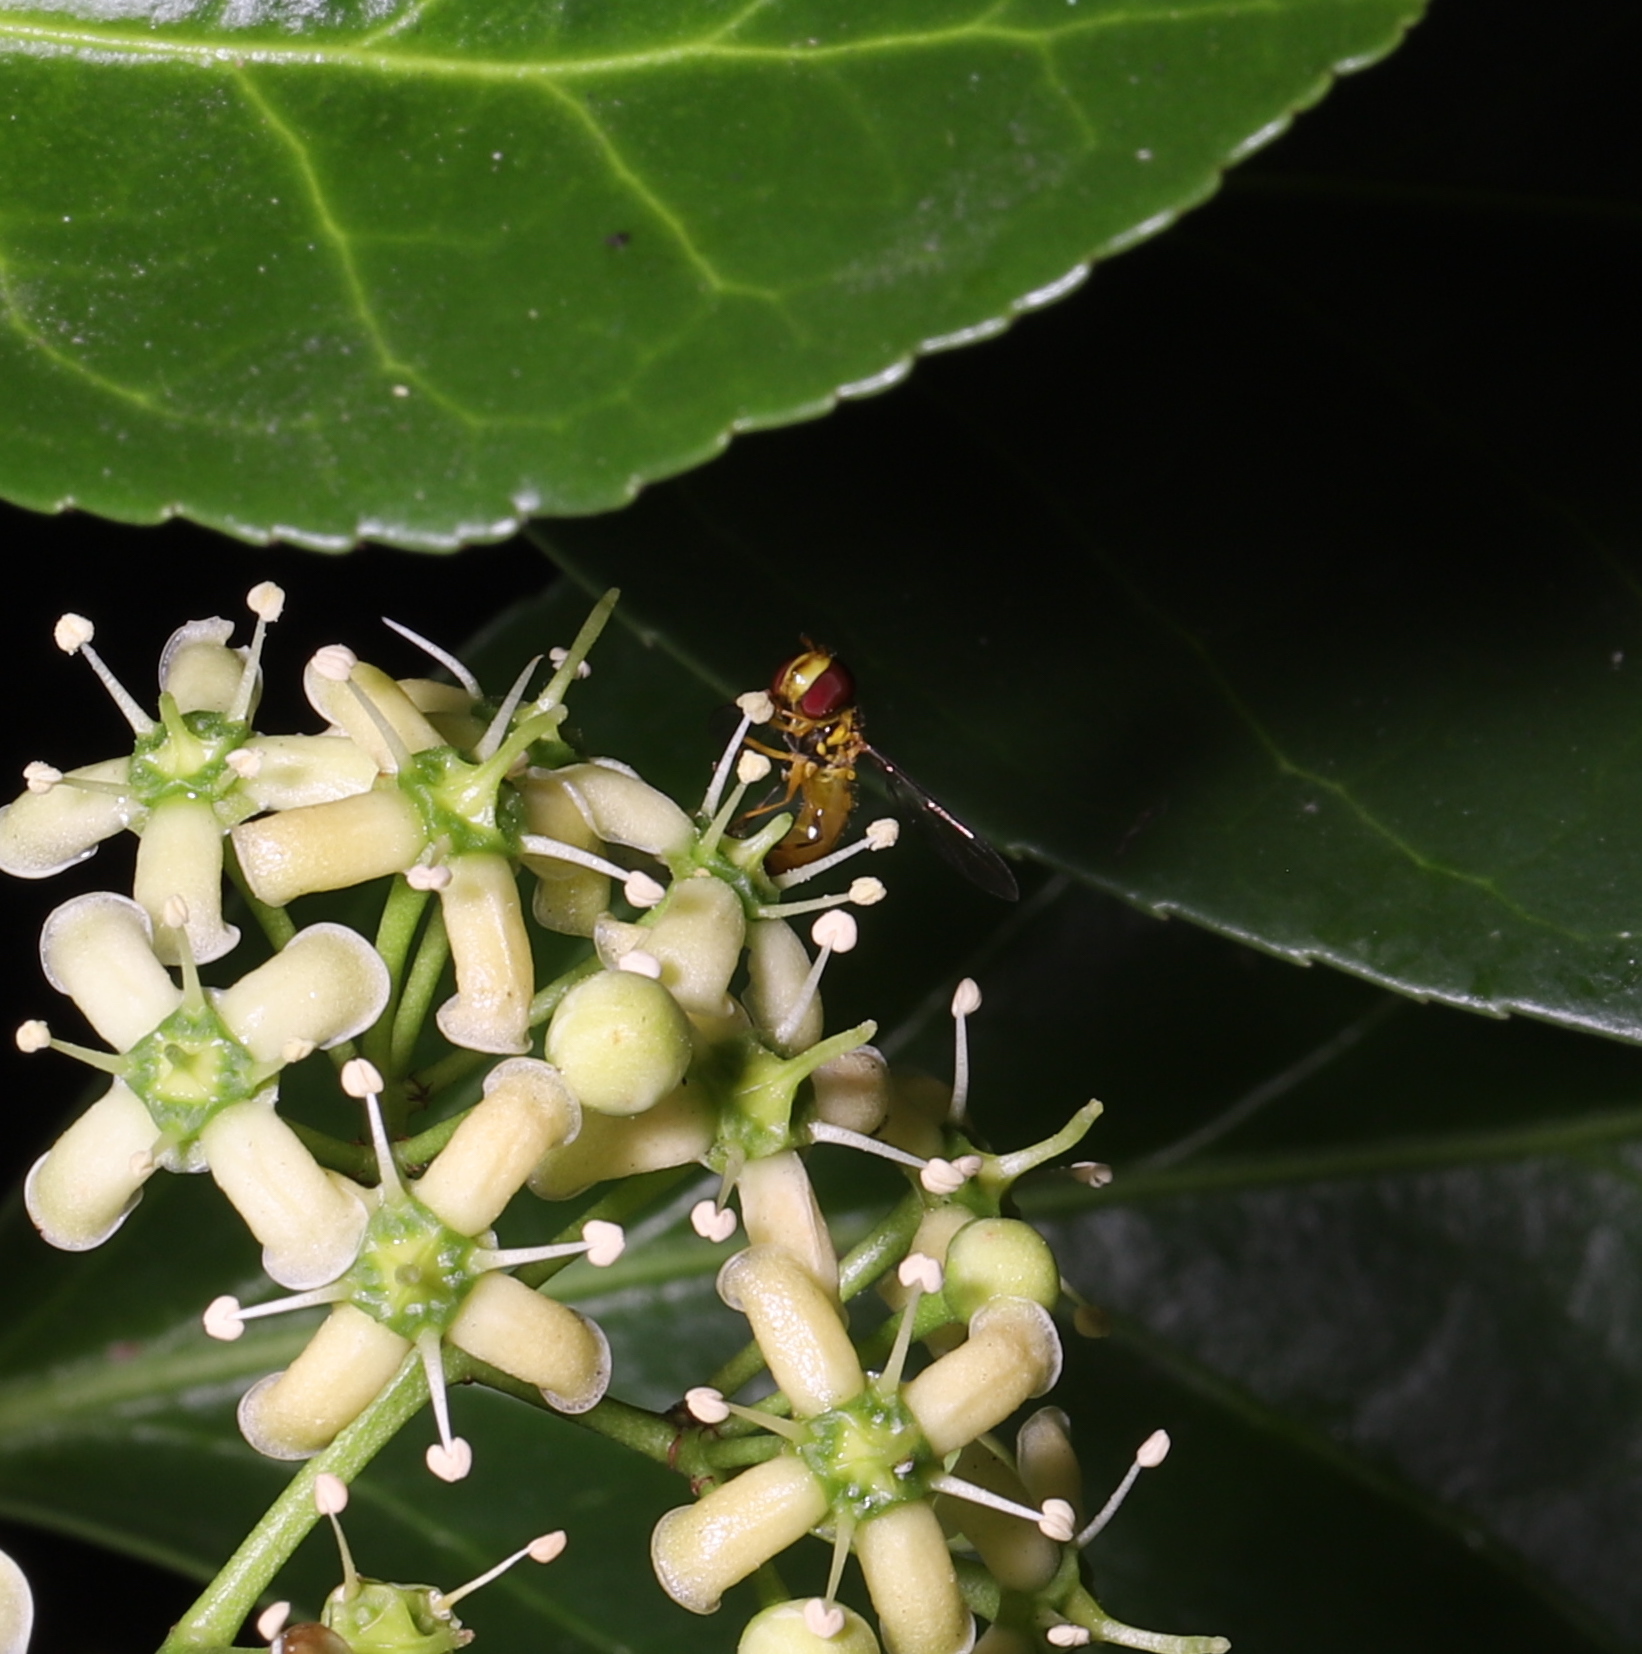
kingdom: Animalia
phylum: Arthropoda
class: Insecta
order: Diptera
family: Syrphidae
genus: Allograpta
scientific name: Allograpta obliqua
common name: Common oblique syrphid
